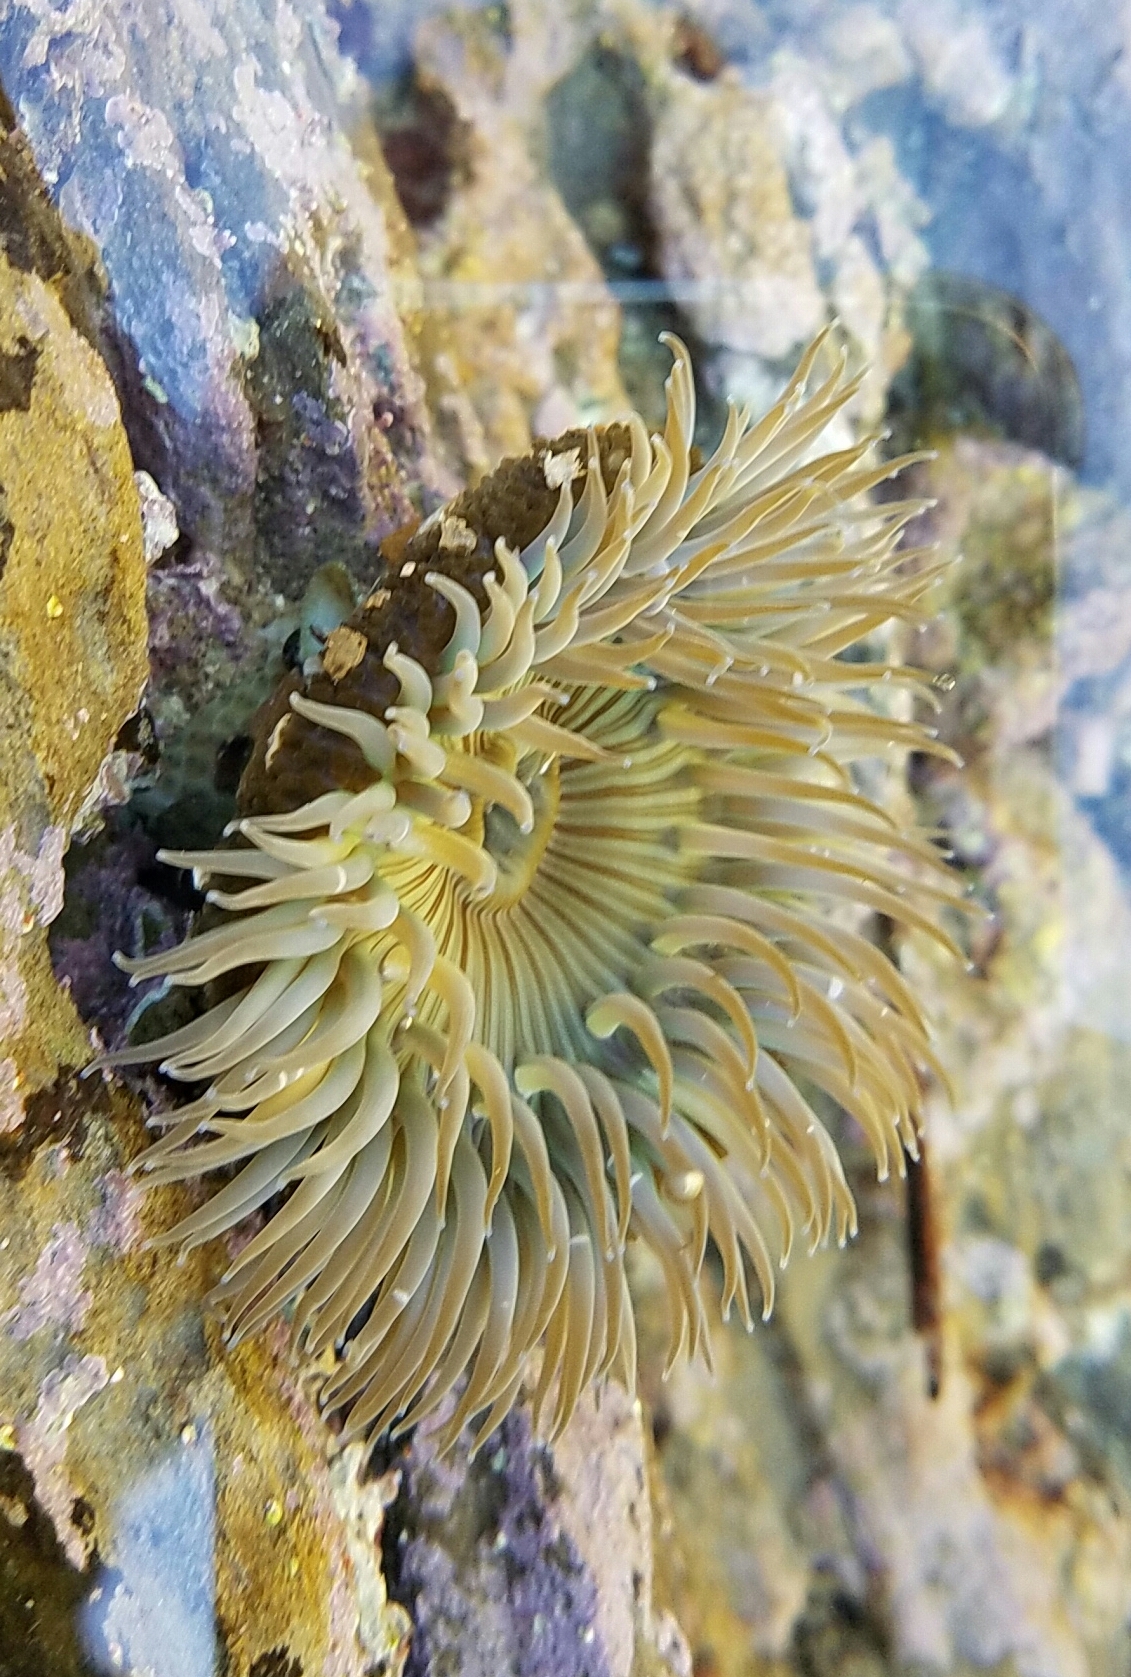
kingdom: Animalia
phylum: Cnidaria
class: Anthozoa
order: Actiniaria
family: Actiniidae
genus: Anthopleura
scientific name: Anthopleura sola
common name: Sun anemone
